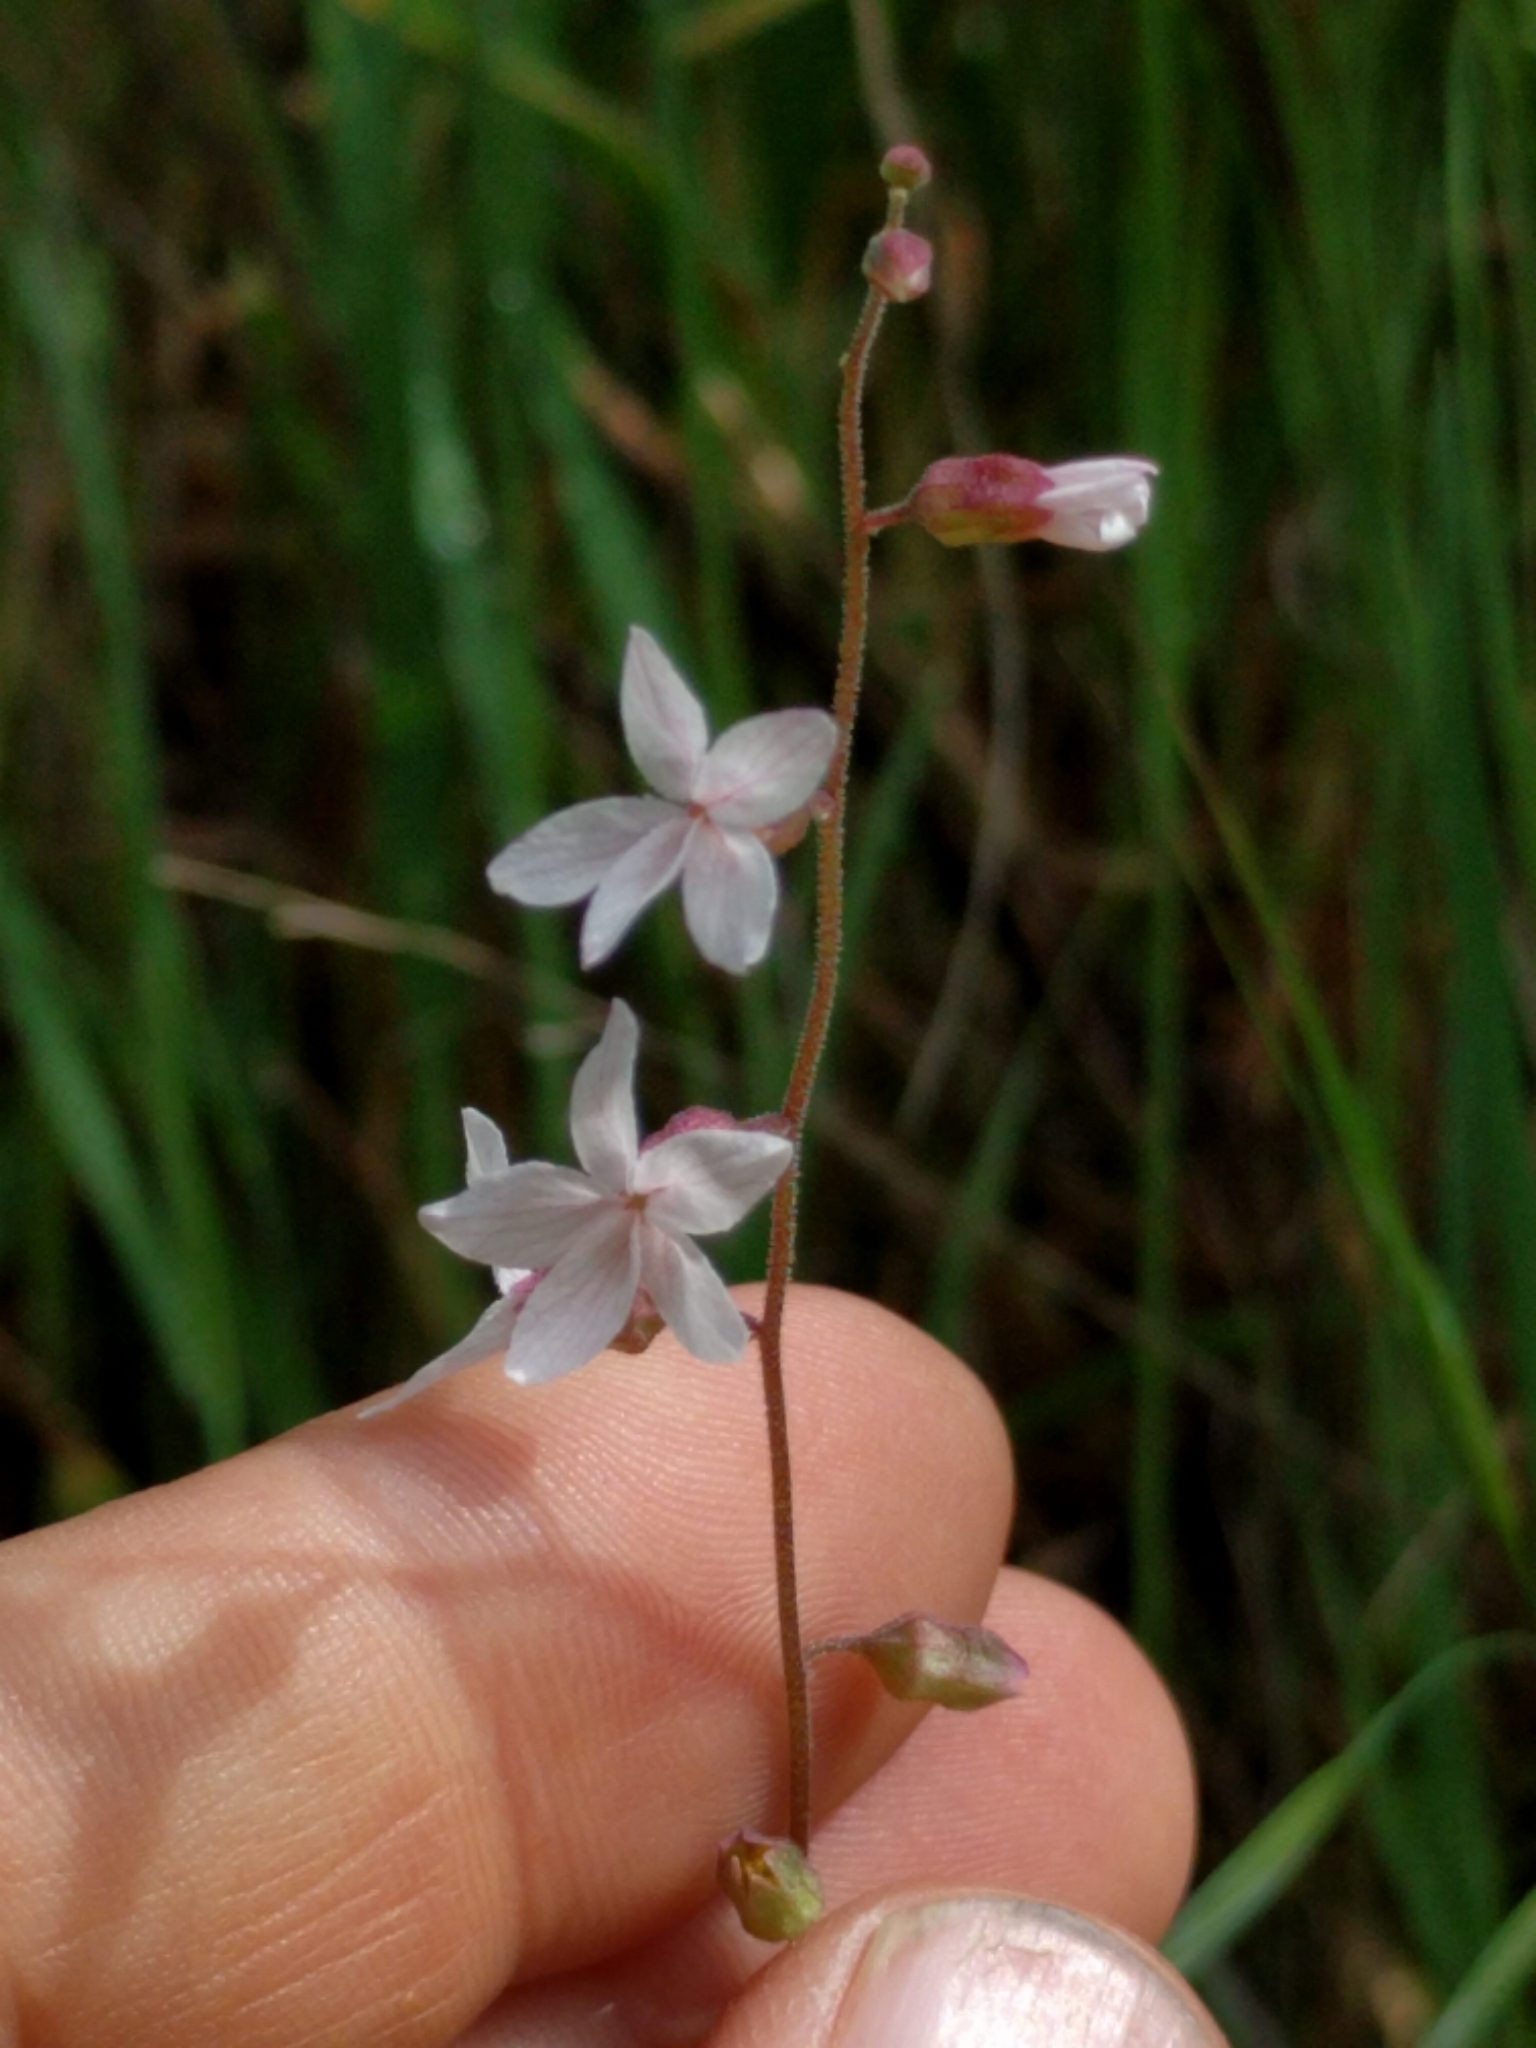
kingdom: Plantae
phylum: Tracheophyta
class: Magnoliopsida
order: Saxifragales
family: Saxifragaceae
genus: Lithophragma
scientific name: Lithophragma bolanderi
